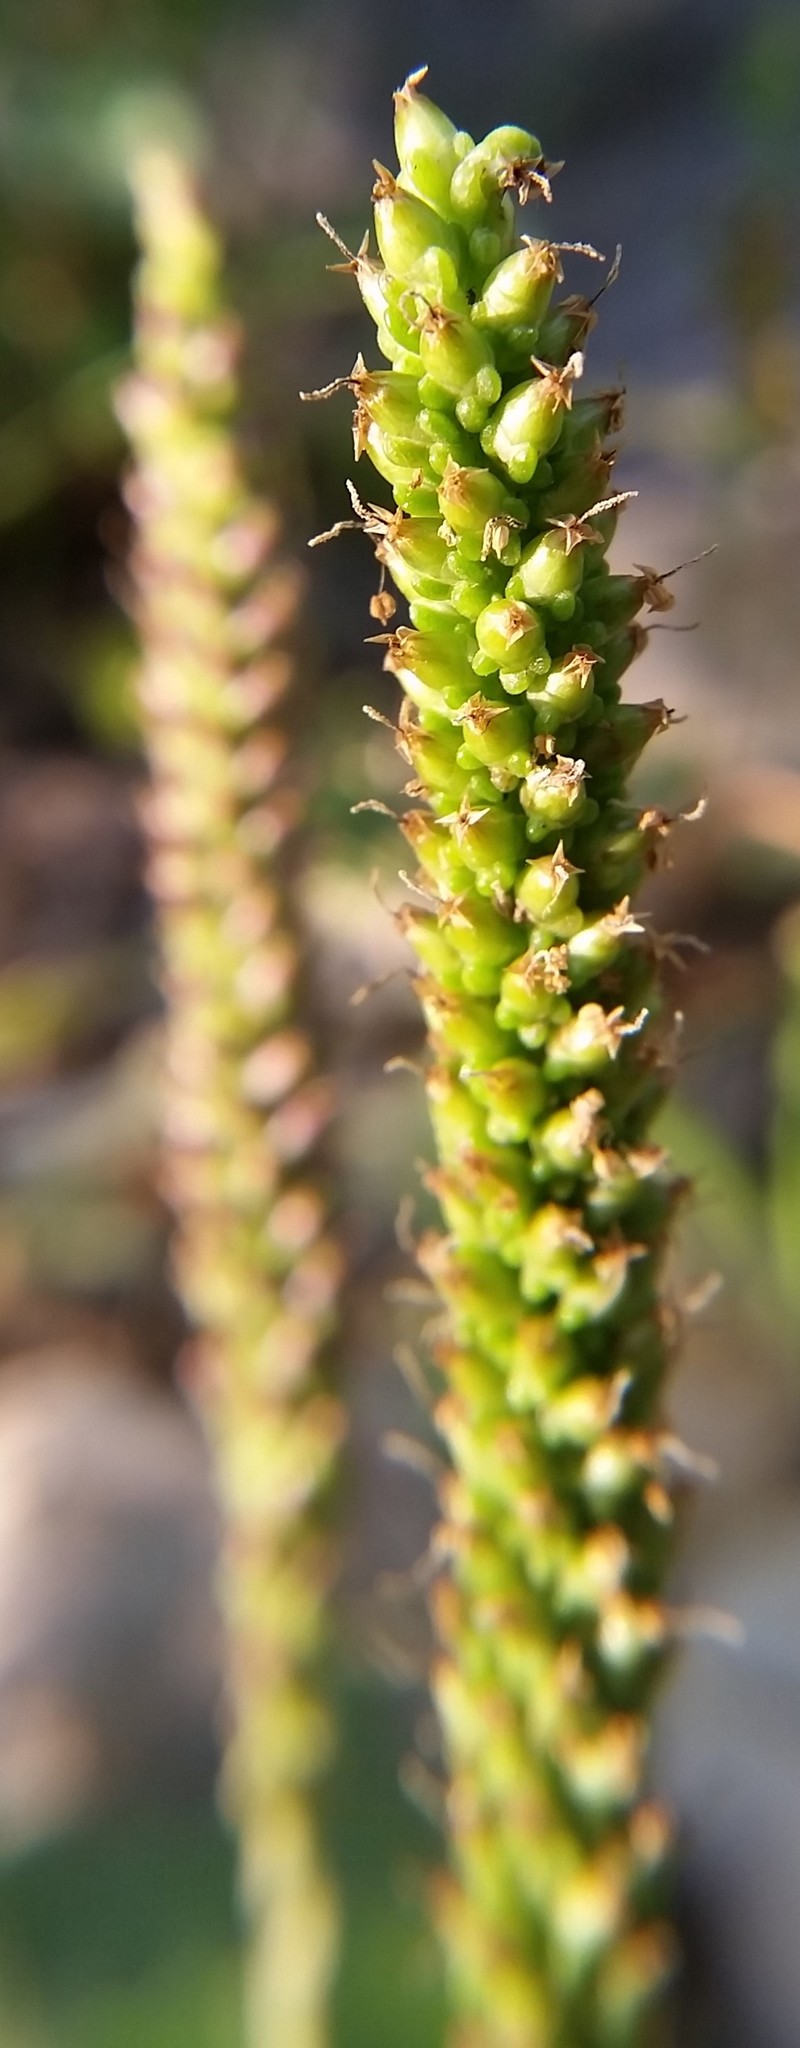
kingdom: Plantae
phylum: Tracheophyta
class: Magnoliopsida
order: Lamiales
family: Plantaginaceae
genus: Plantago
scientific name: Plantago major
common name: Common plantain
